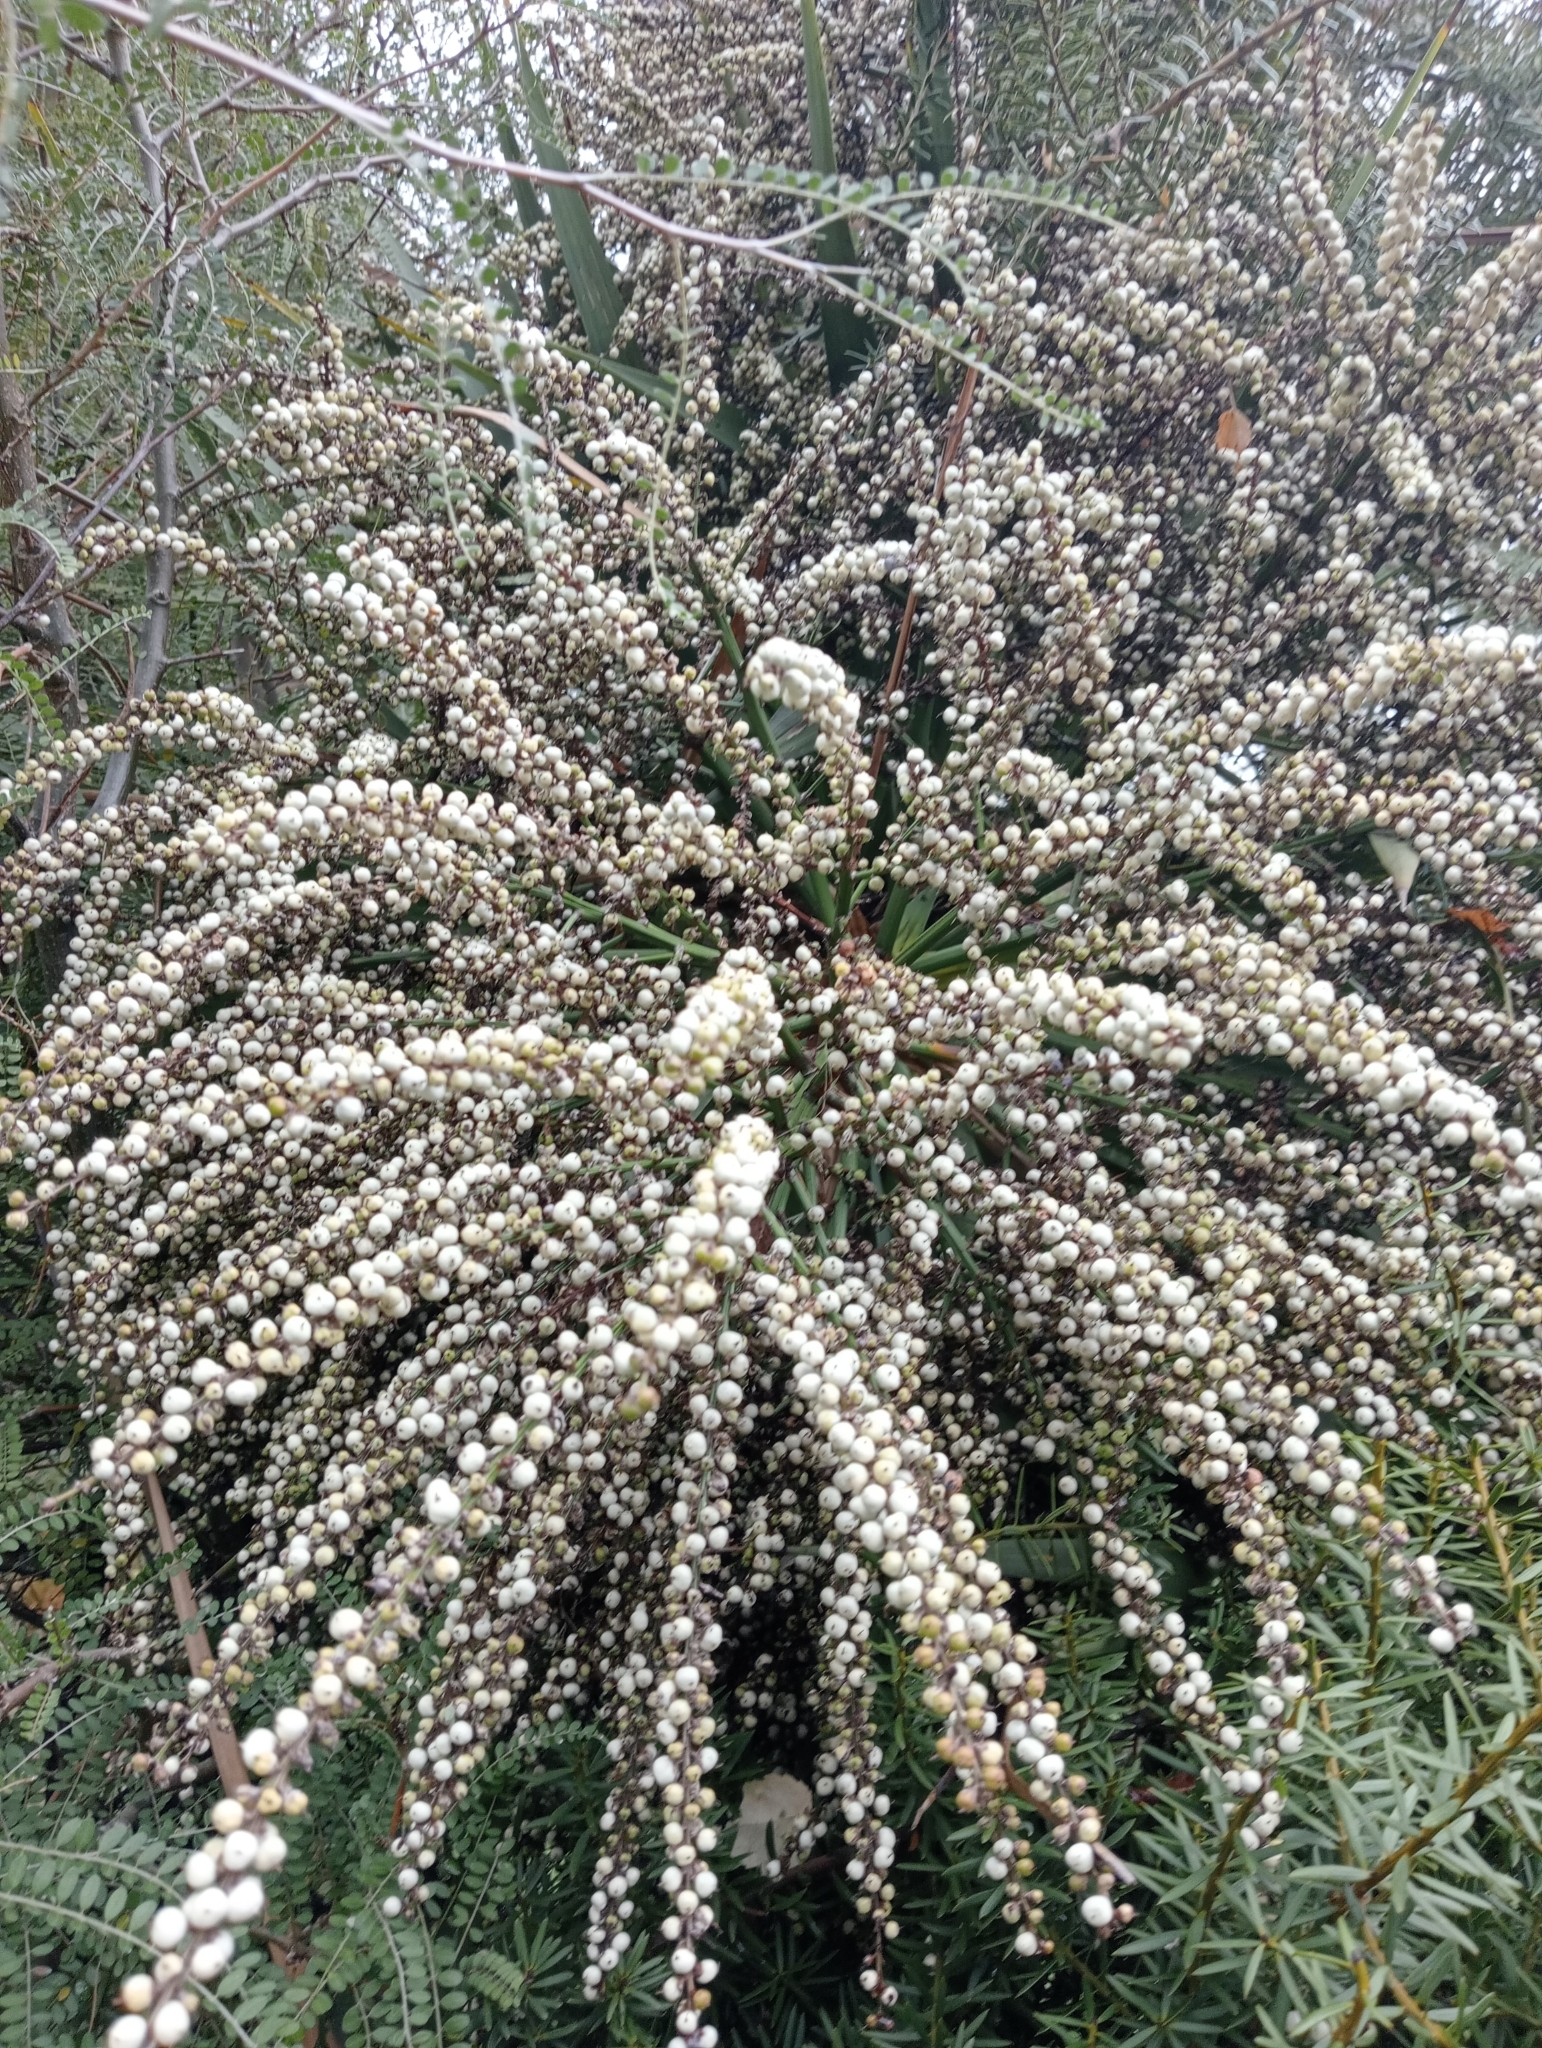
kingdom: Plantae
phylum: Tracheophyta
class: Liliopsida
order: Asparagales
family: Asparagaceae
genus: Cordyline
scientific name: Cordyline australis
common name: Cabbage-palm
